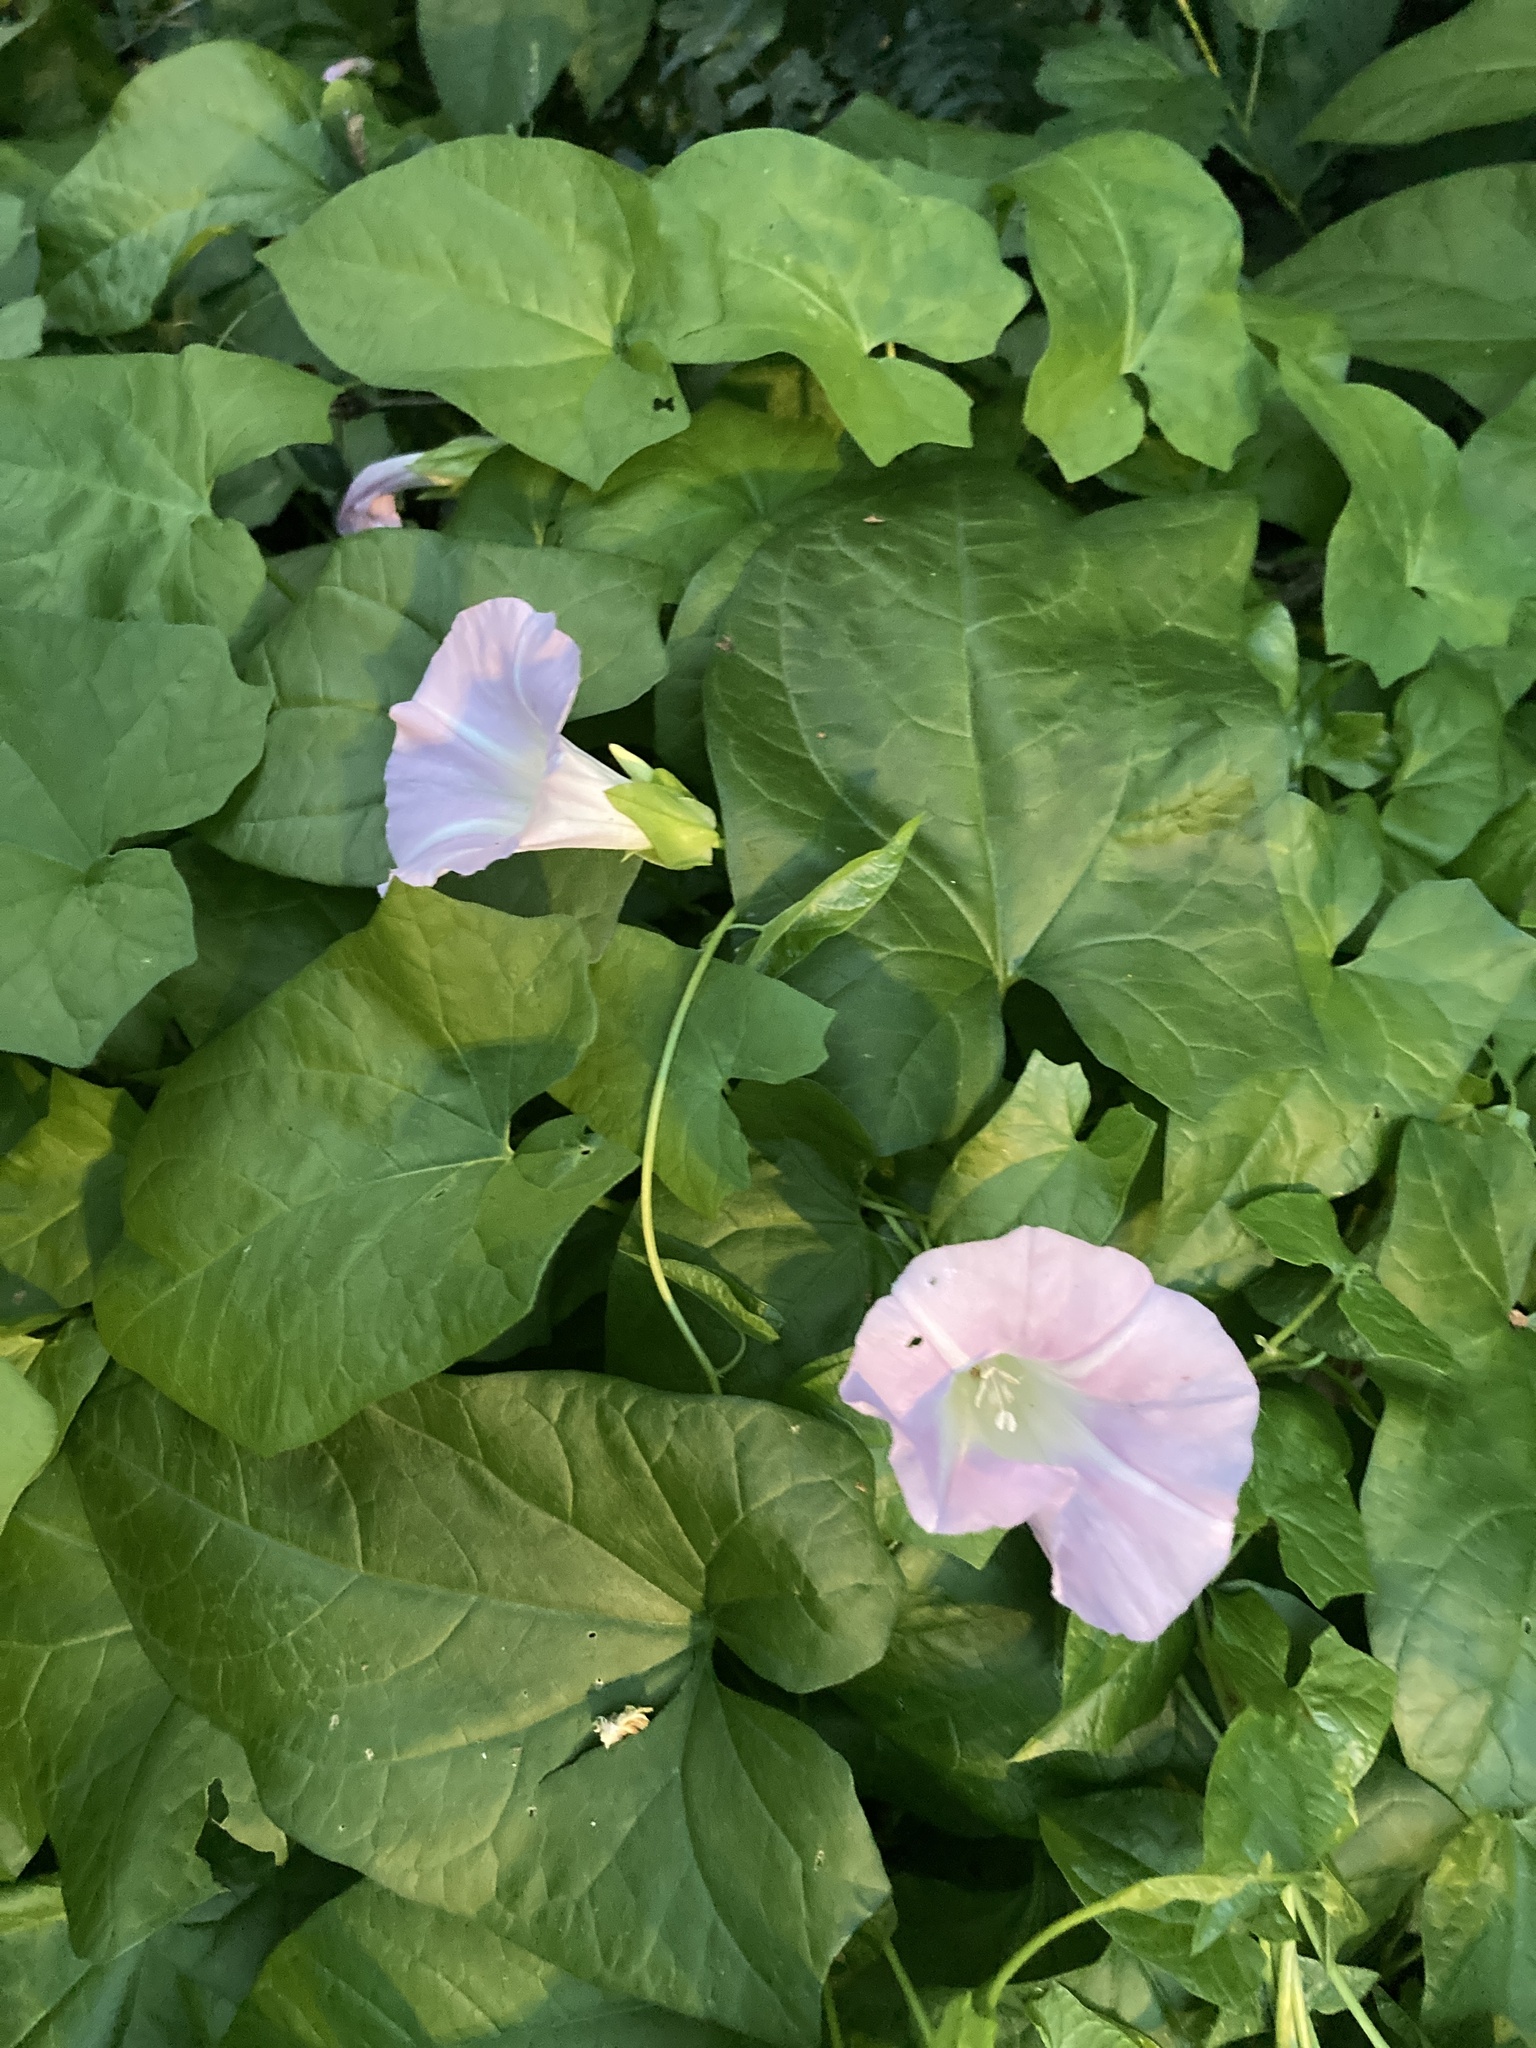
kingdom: Plantae
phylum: Tracheophyta
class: Magnoliopsida
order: Solanales
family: Convolvulaceae
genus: Calystegia
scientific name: Calystegia sepium
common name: Hedge bindweed
